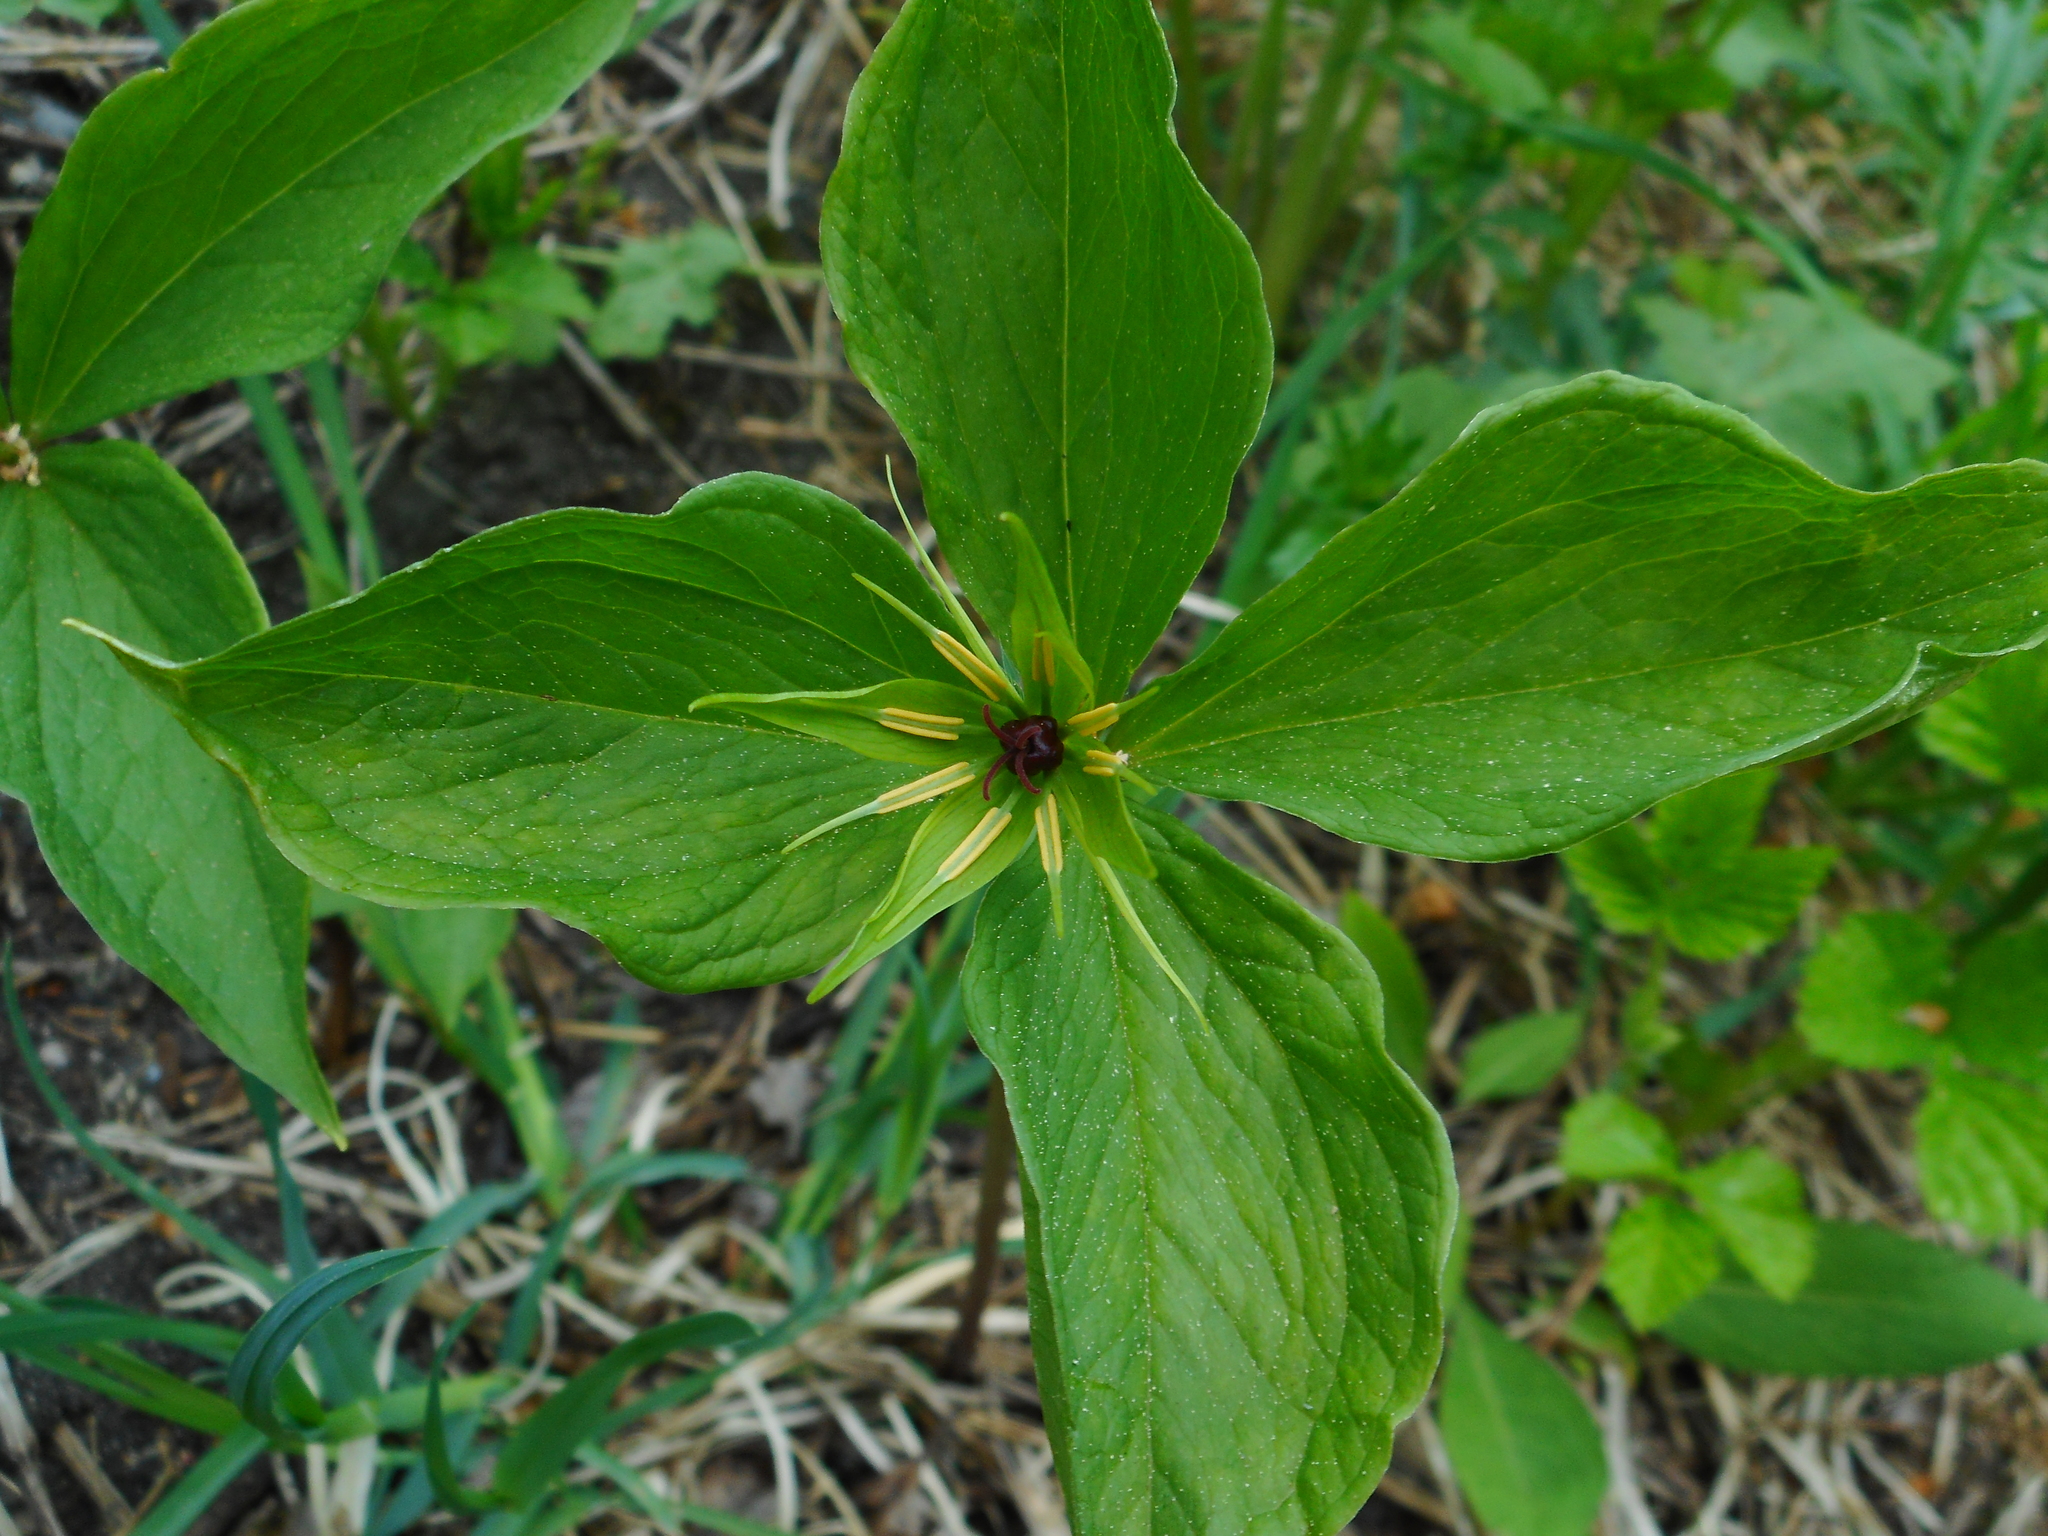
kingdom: Plantae
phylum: Tracheophyta
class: Liliopsida
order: Liliales
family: Melanthiaceae
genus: Paris
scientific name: Paris quadrifolia
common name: Herb-paris
